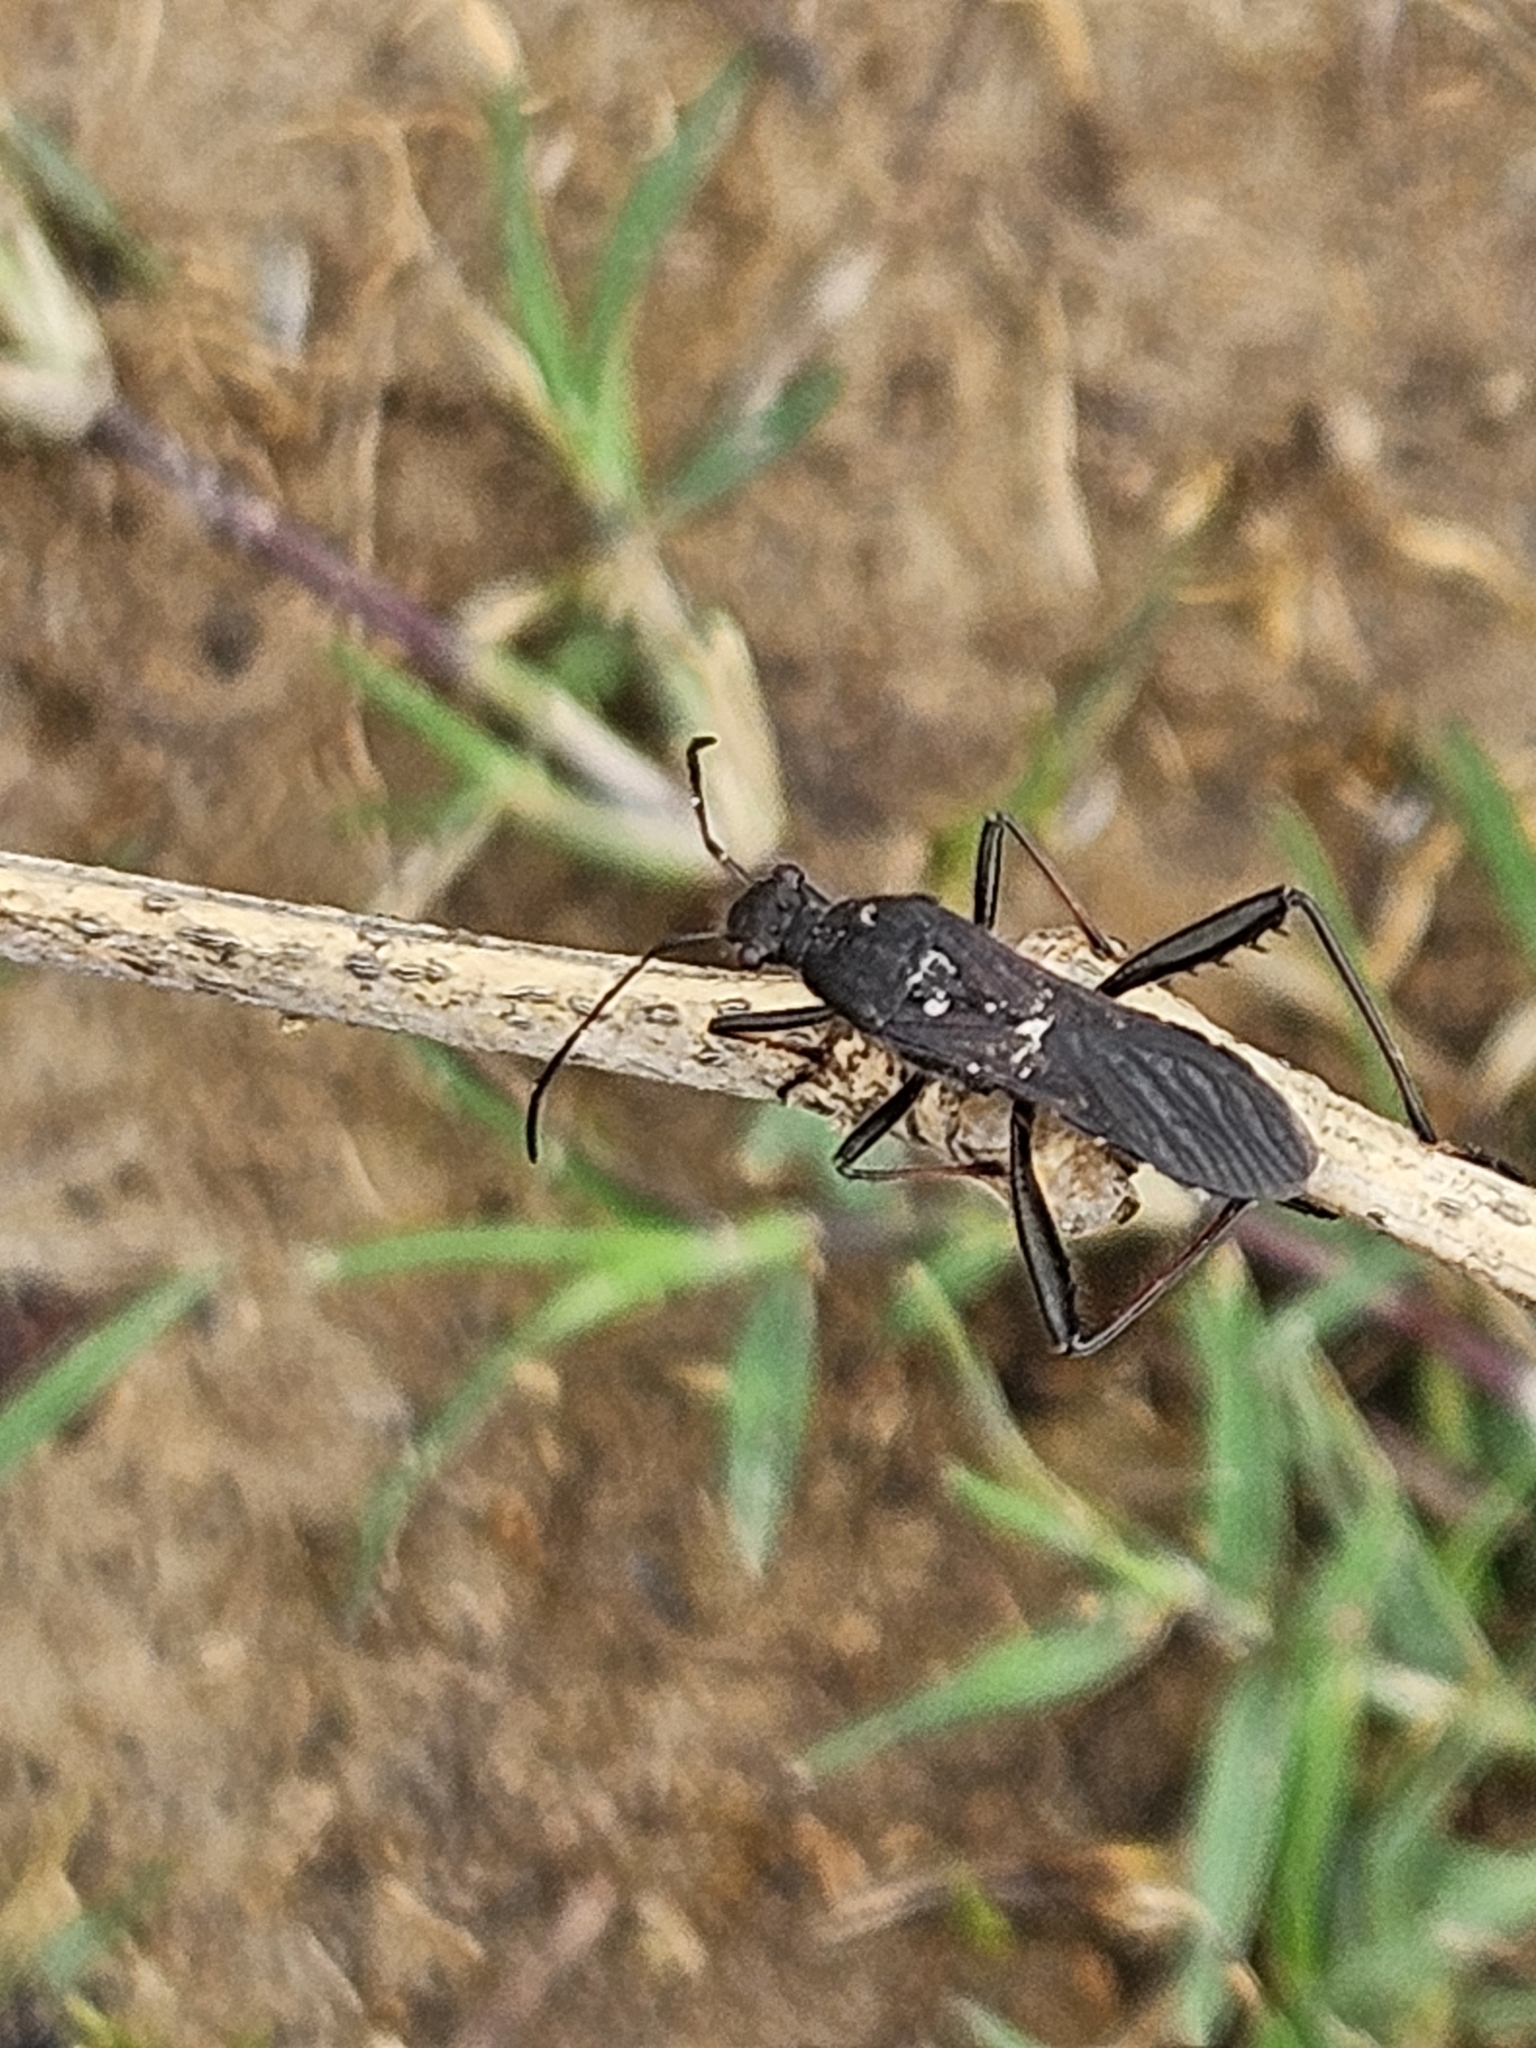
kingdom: Animalia
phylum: Arthropoda
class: Insecta
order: Hemiptera
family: Alydidae
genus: Alydus
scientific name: Alydus eurinus
